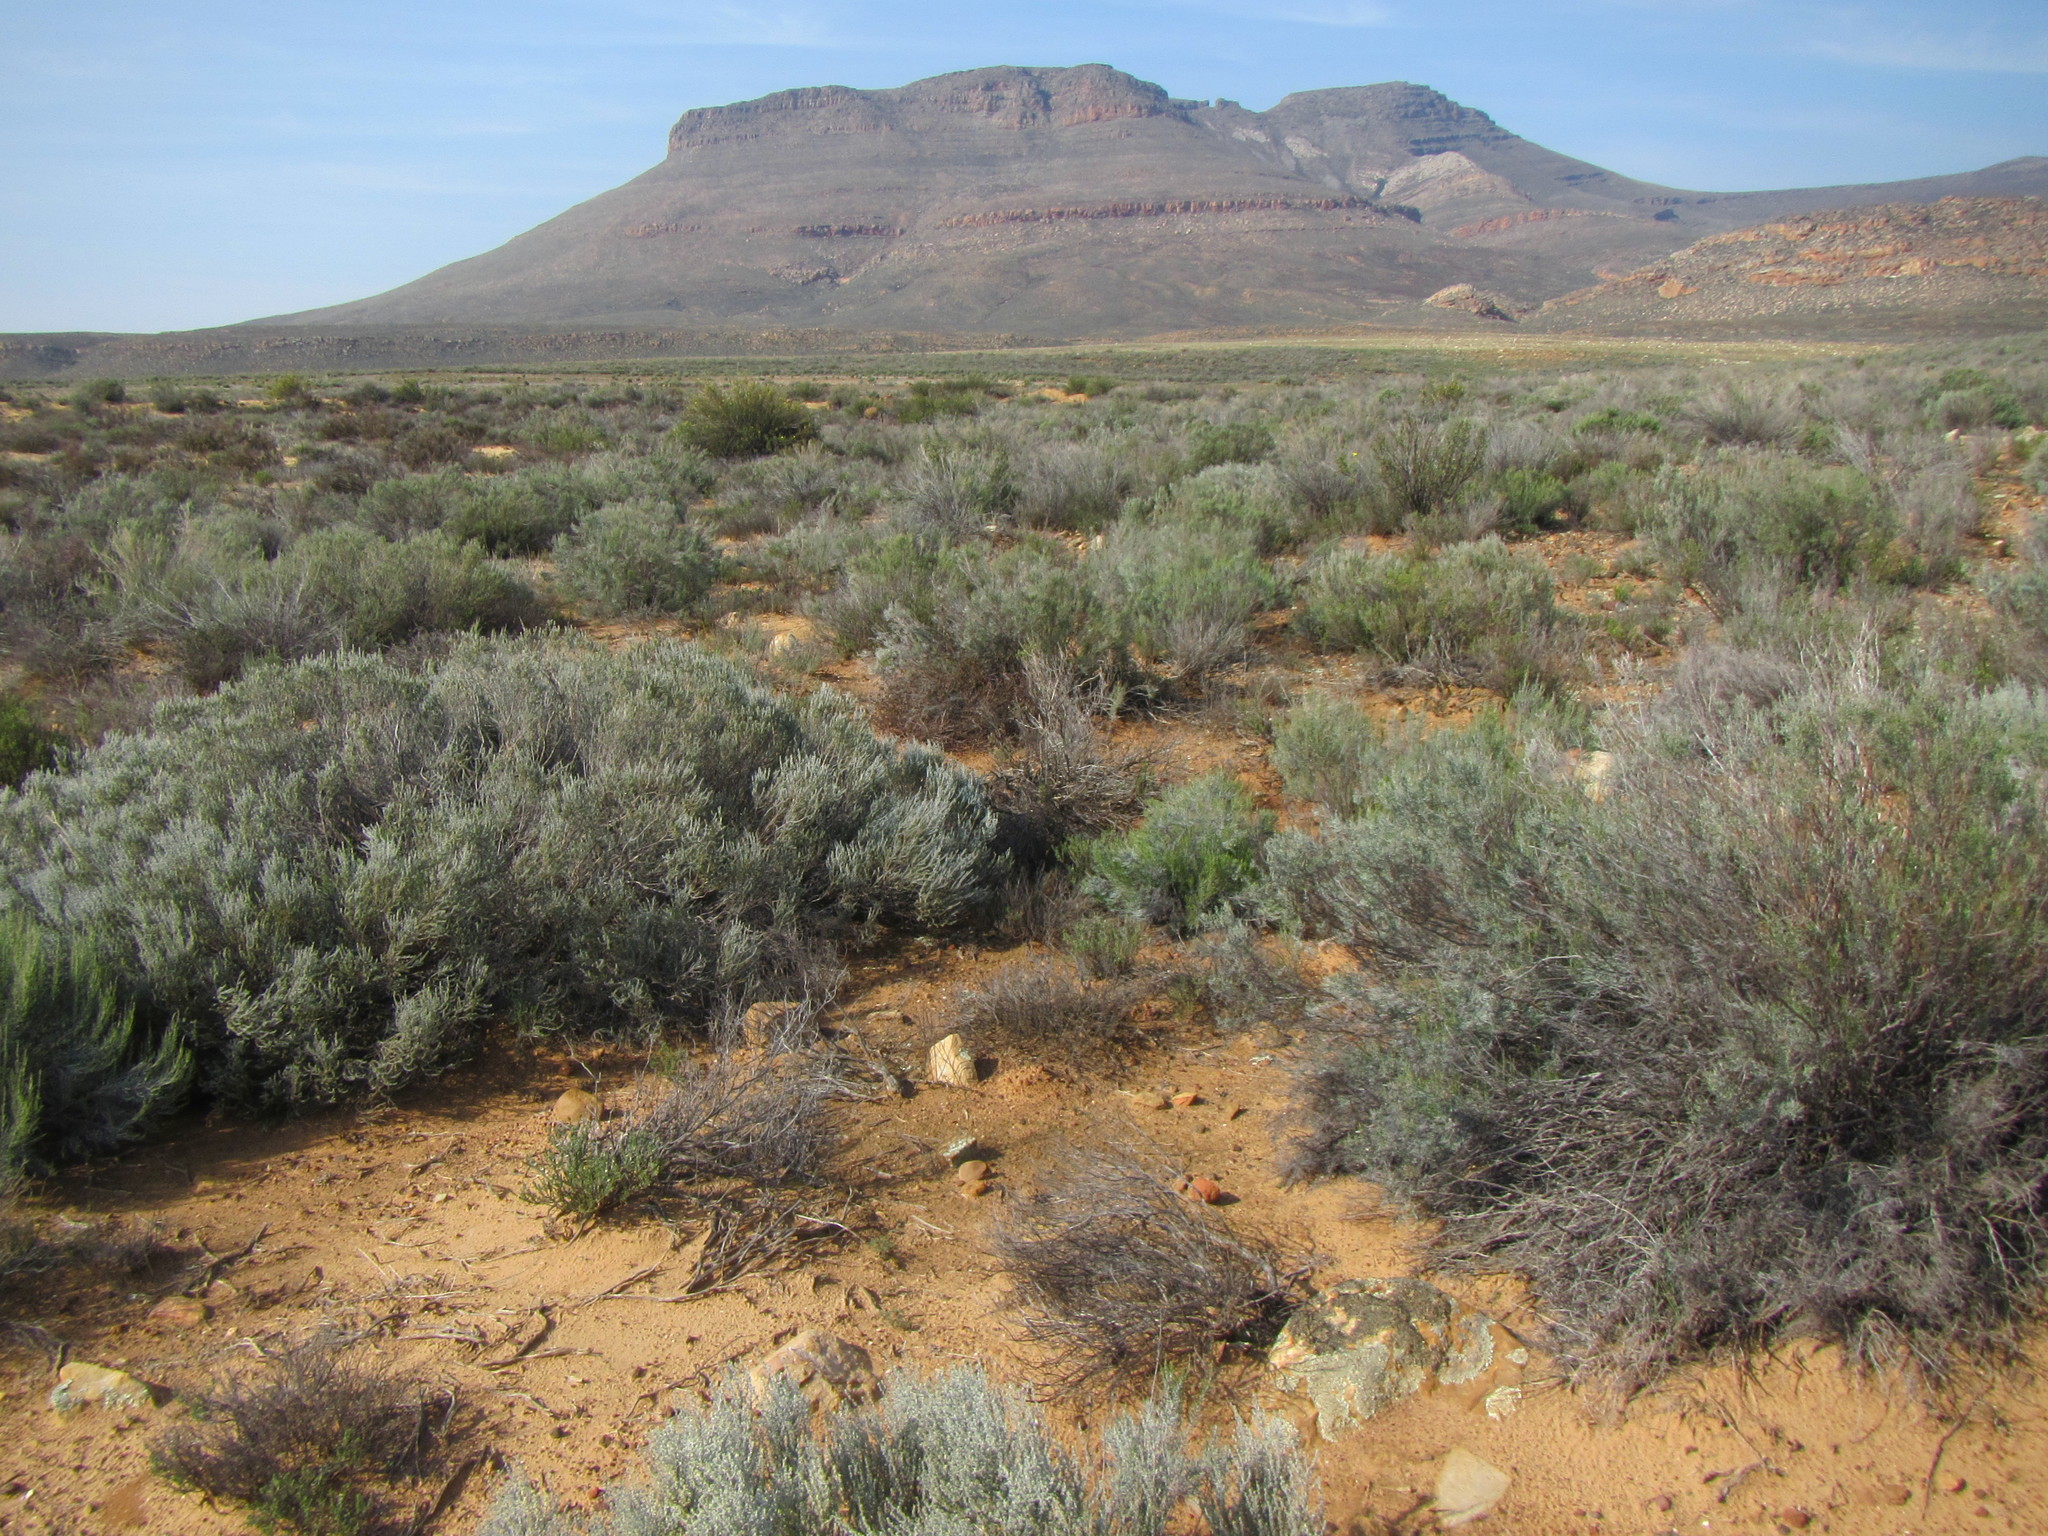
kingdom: Plantae
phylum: Tracheophyta
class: Magnoliopsida
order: Asterales
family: Asteraceae
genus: Dicerothamnus
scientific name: Dicerothamnus rhinocerotis
